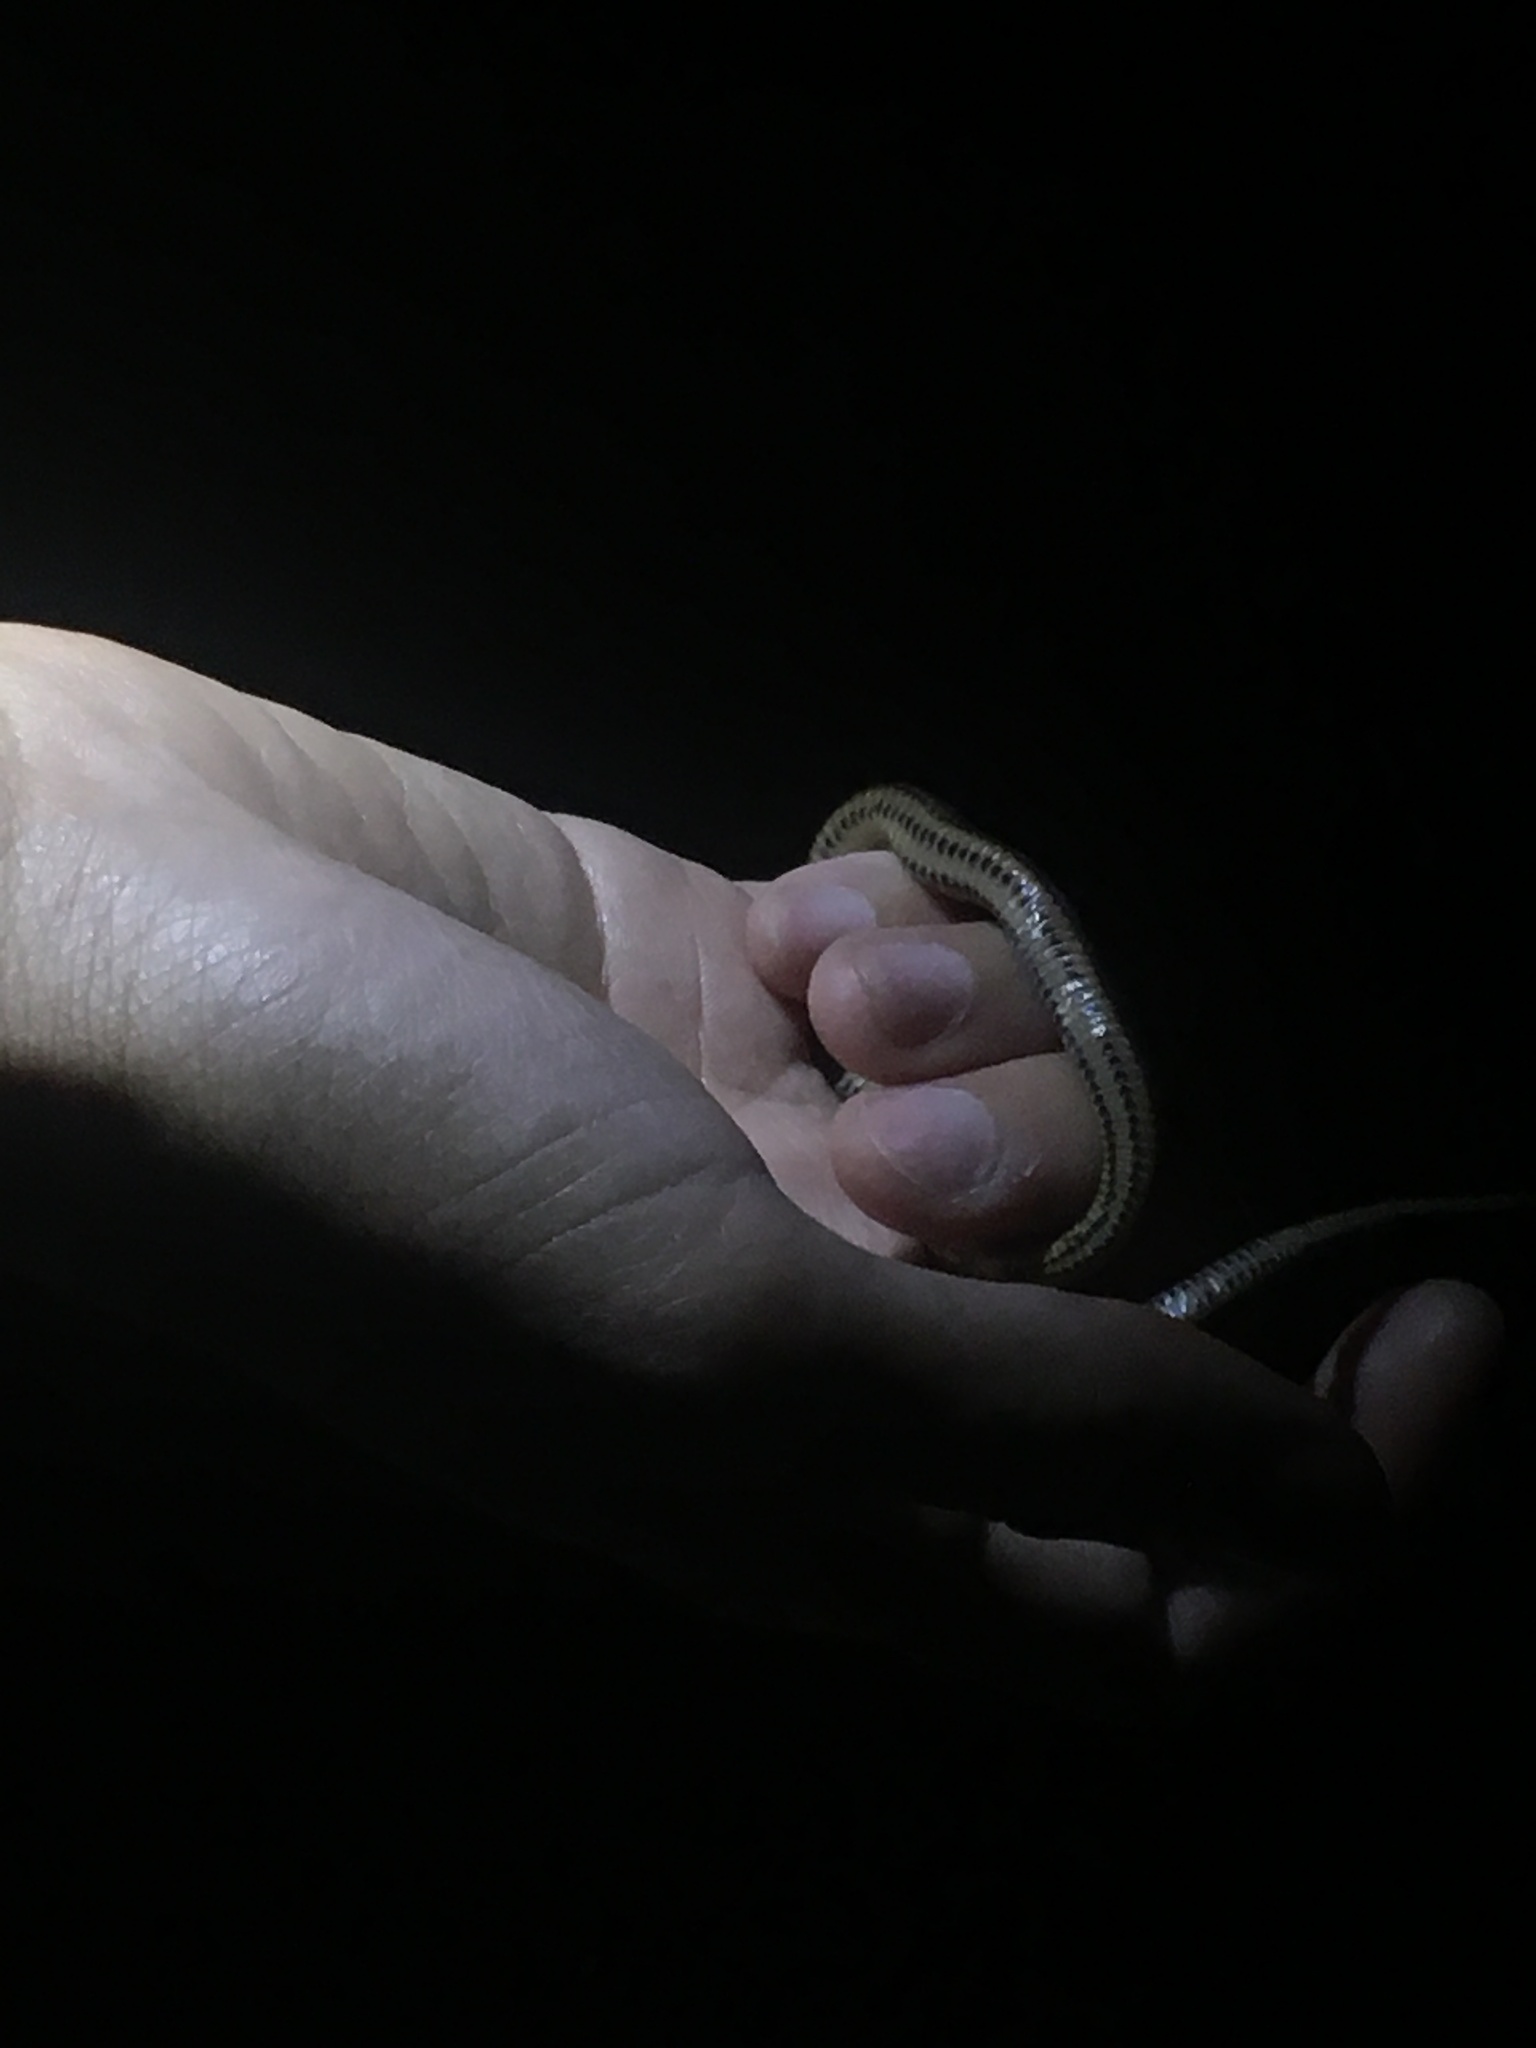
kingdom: Animalia
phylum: Chordata
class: Squamata
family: Colubridae
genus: Liodytes
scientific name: Liodytes rigida
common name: Crayfish snake
